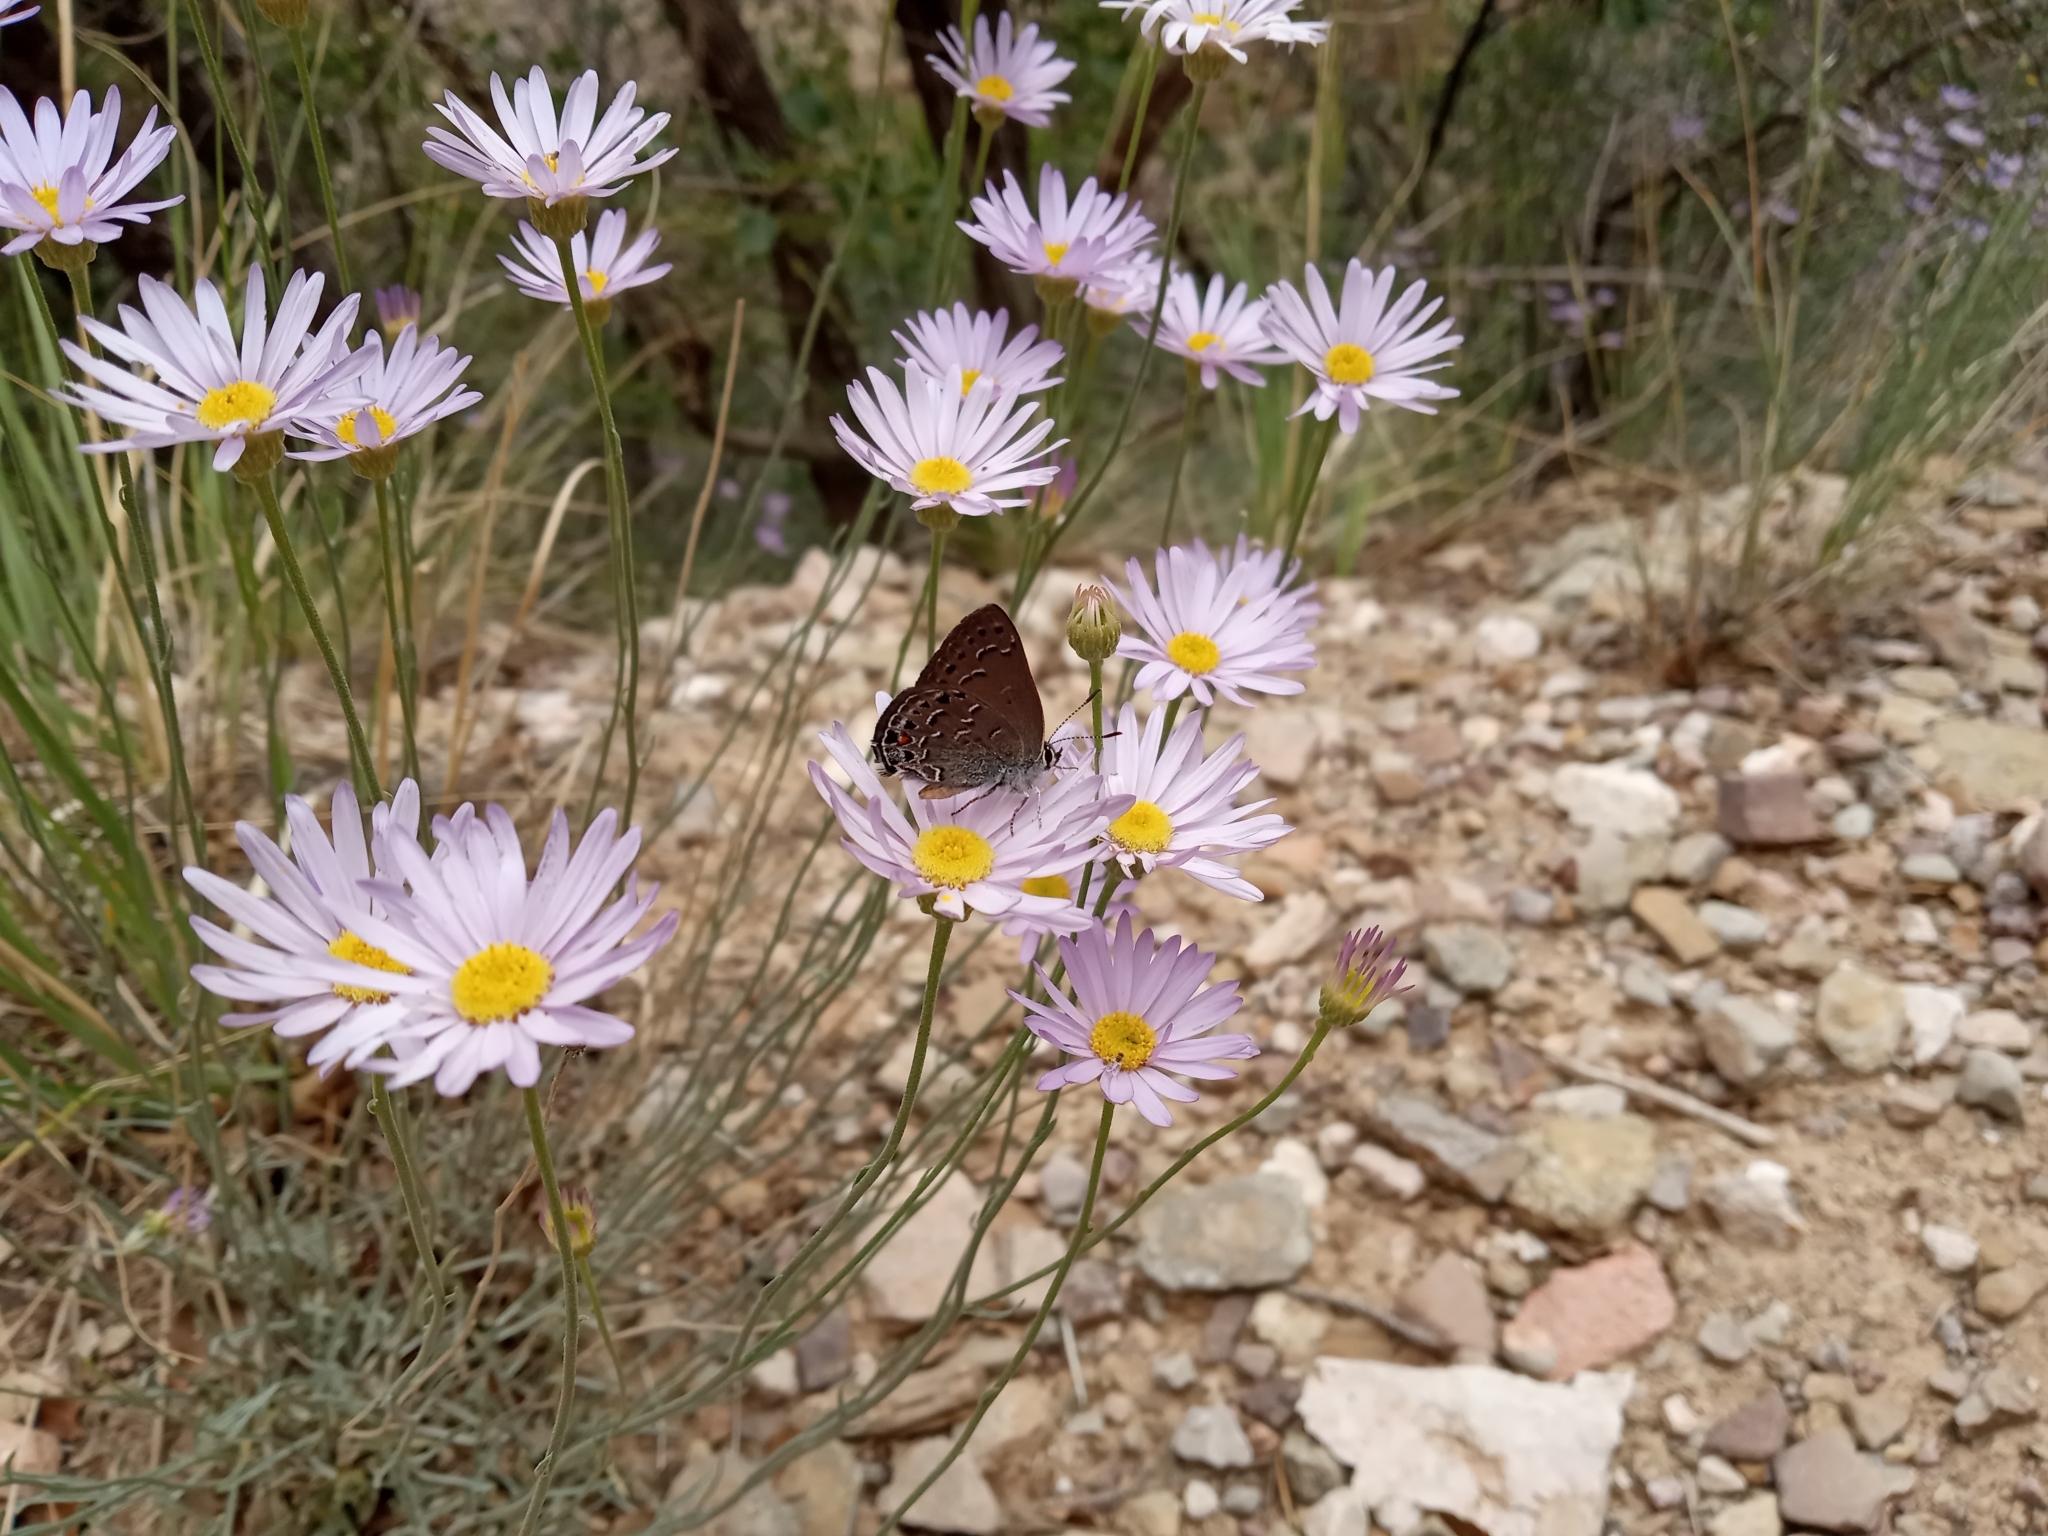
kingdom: Animalia
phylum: Arthropoda
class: Insecta
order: Lepidoptera
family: Lycaenidae
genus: Satyrium
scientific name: Satyrium behrii
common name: Behr's hairstreak
